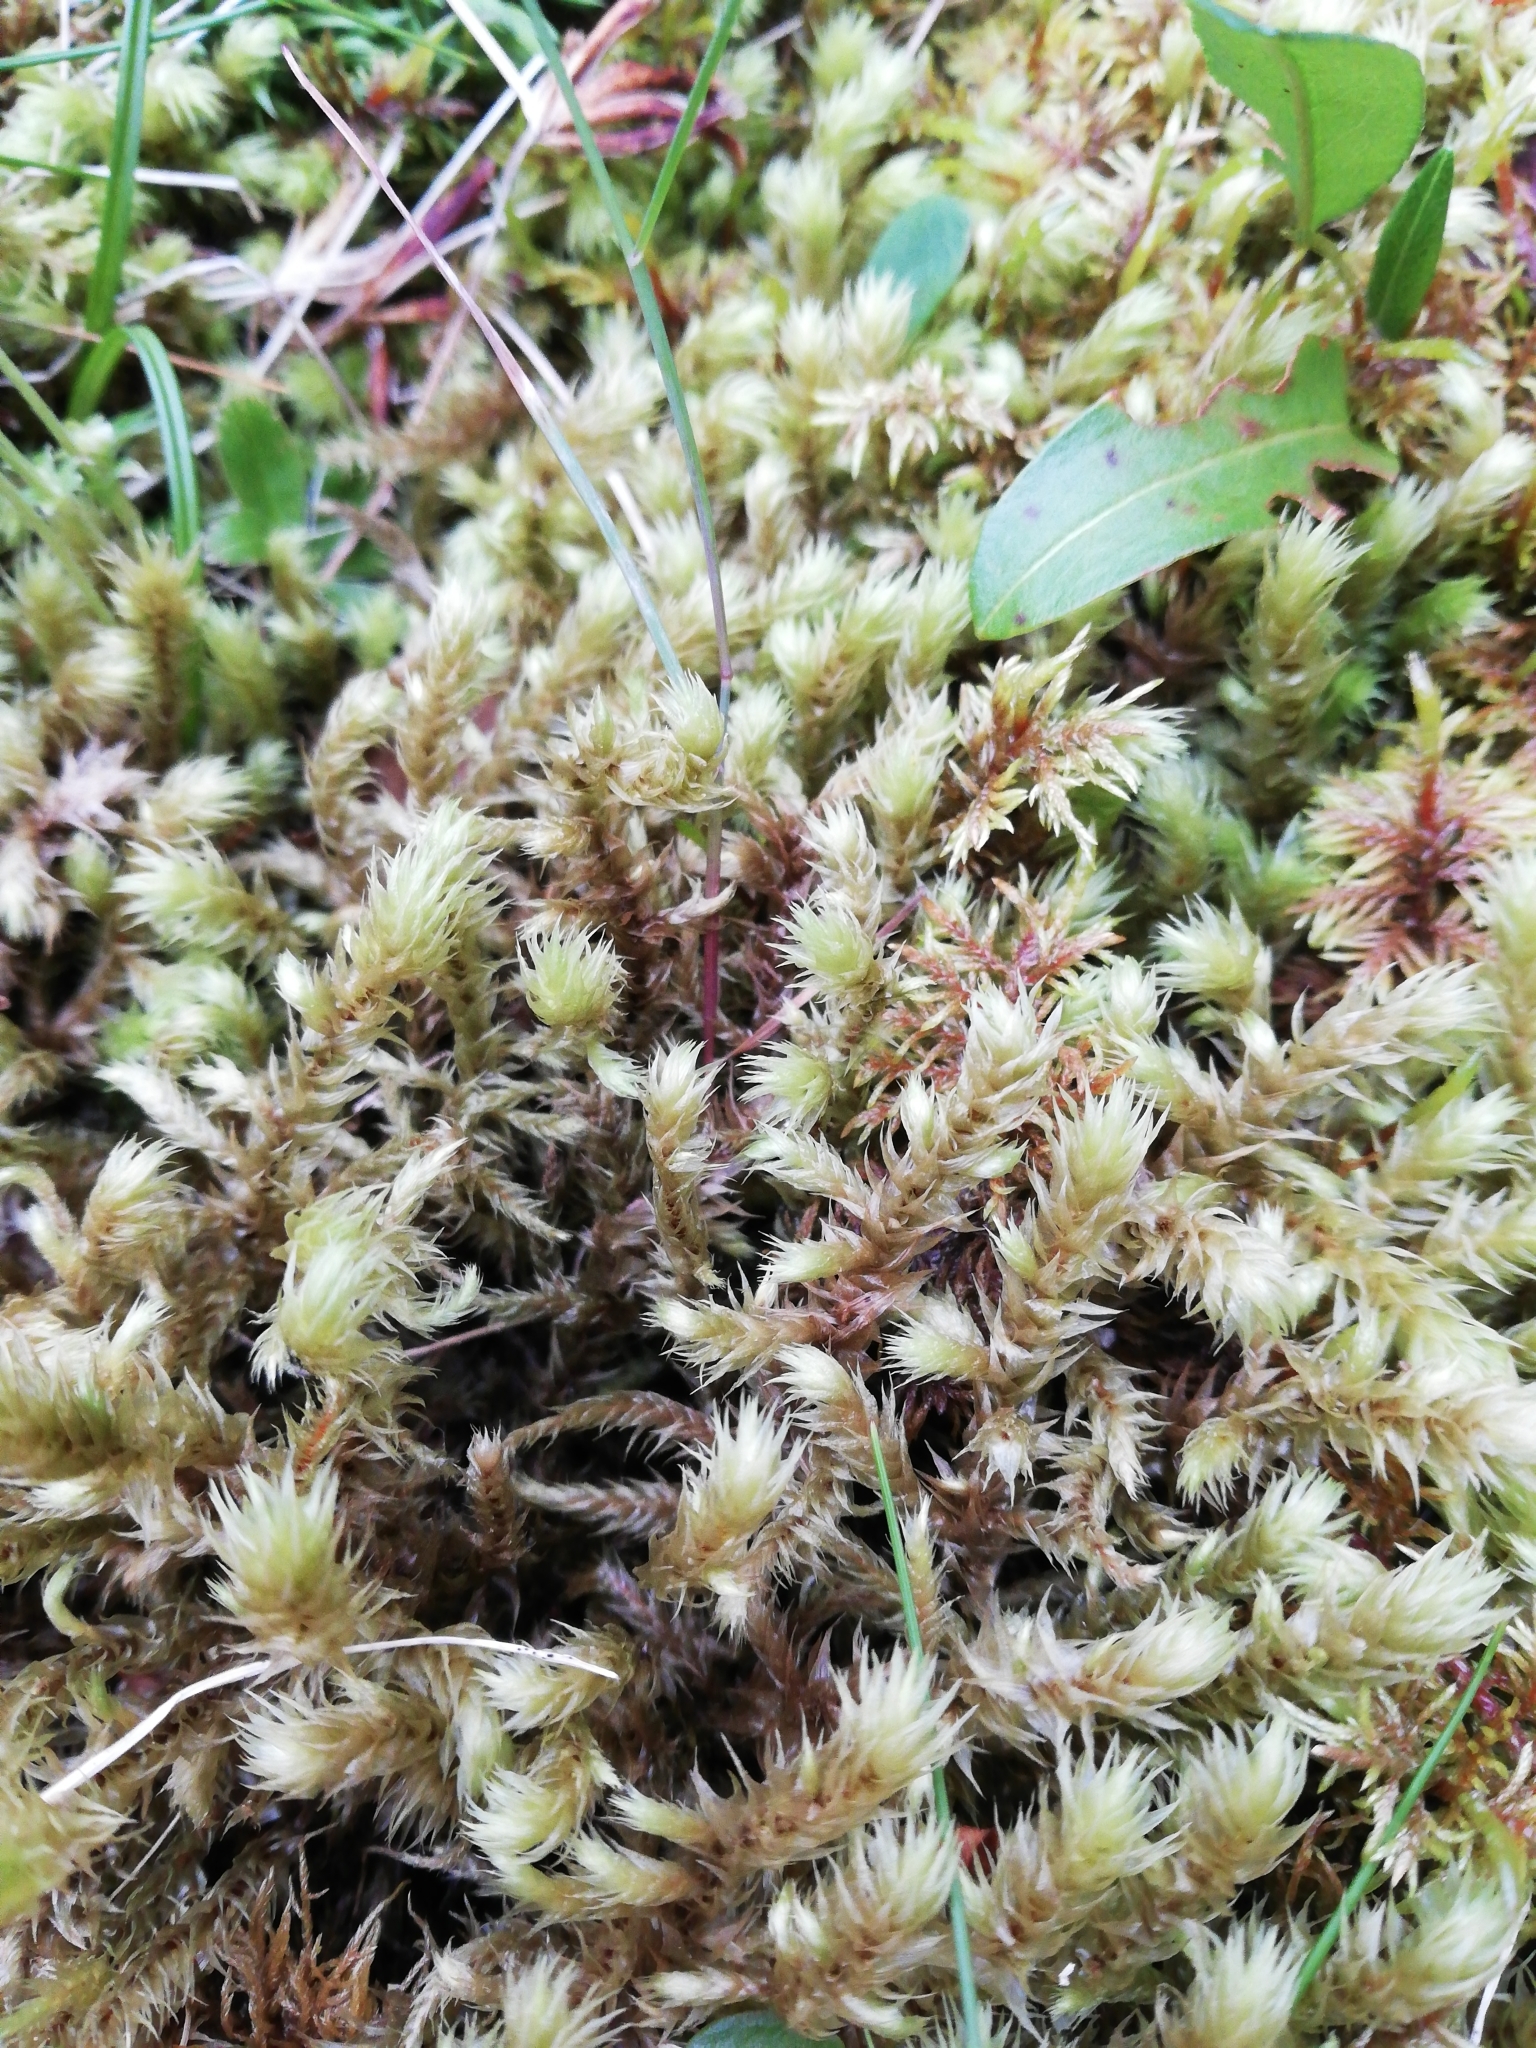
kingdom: Plantae
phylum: Bryophyta
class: Bryopsida
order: Hypnales
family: Hylocomiaceae
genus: Hylocomiadelphus
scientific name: Hylocomiadelphus triquetrus
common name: Rough goose neck moss
